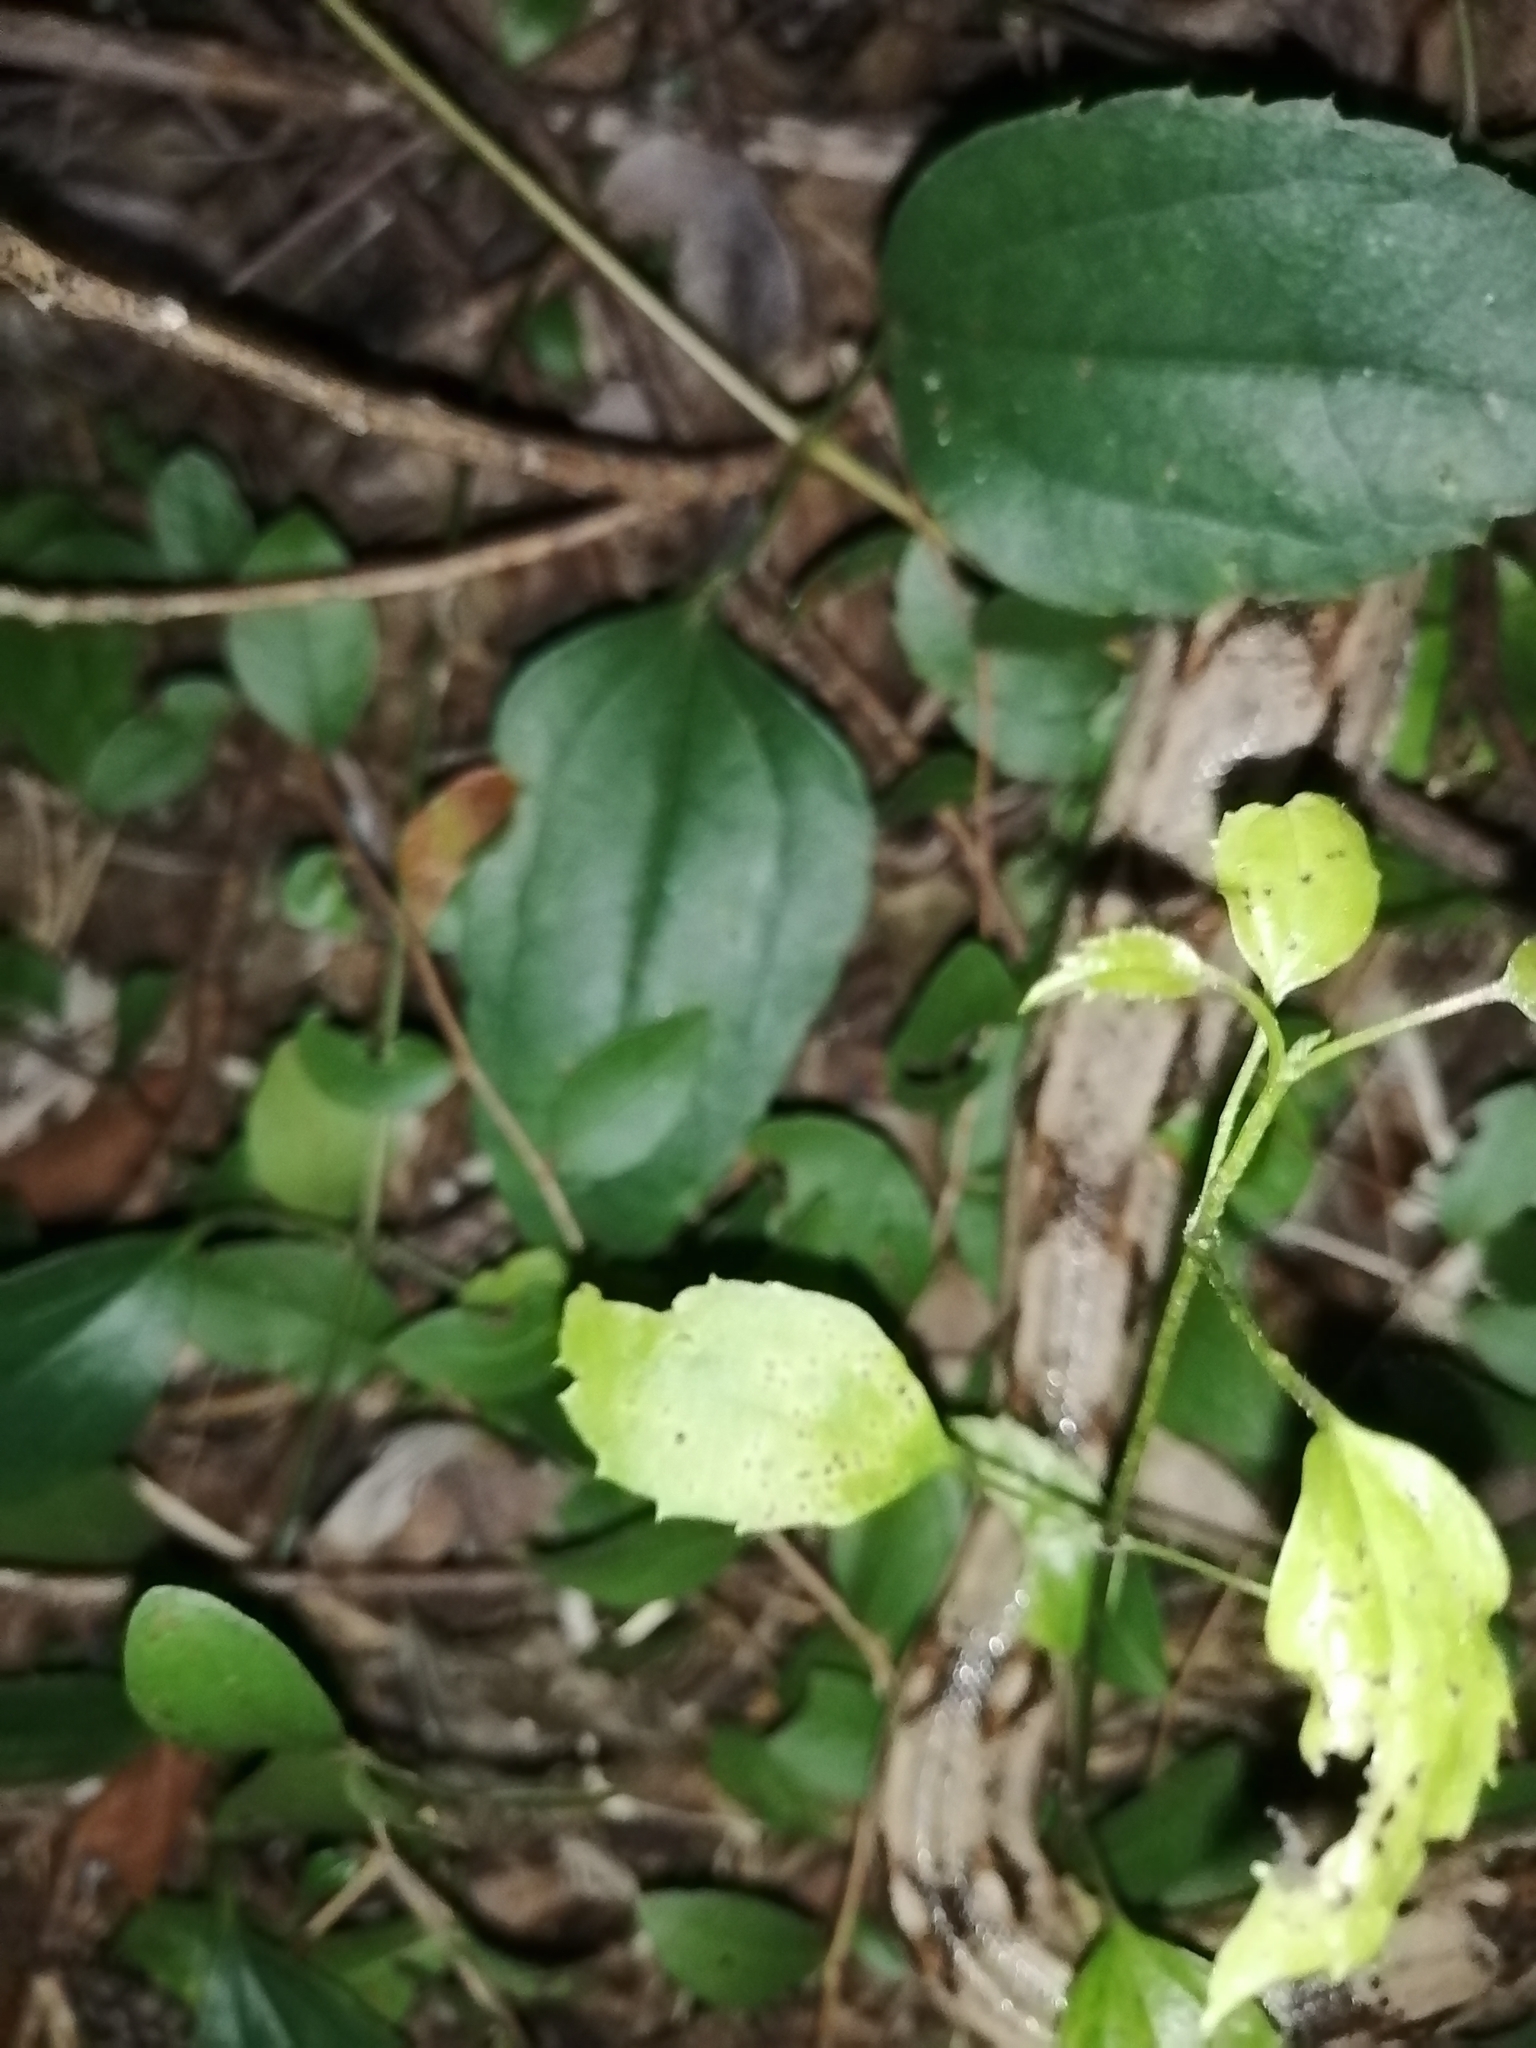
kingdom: Animalia
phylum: Chordata
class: Squamata
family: Boidae
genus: Boa
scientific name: Boa imperator
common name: Central american boa
